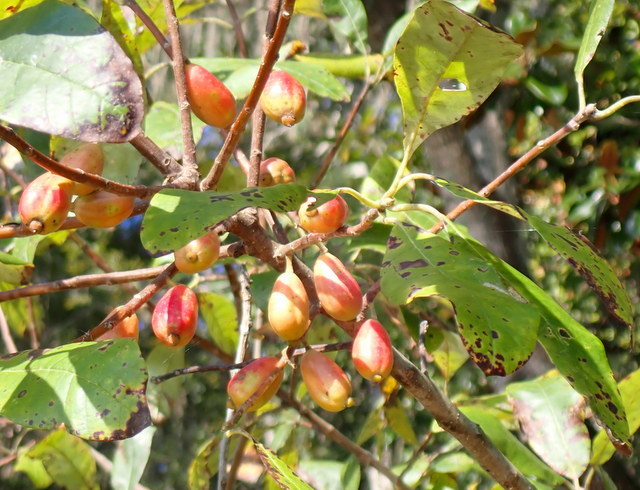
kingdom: Plantae
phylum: Tracheophyta
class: Magnoliopsida
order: Cornales
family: Nyssaceae
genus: Nyssa
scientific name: Nyssa ogeche
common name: Ogeechee tupelo
